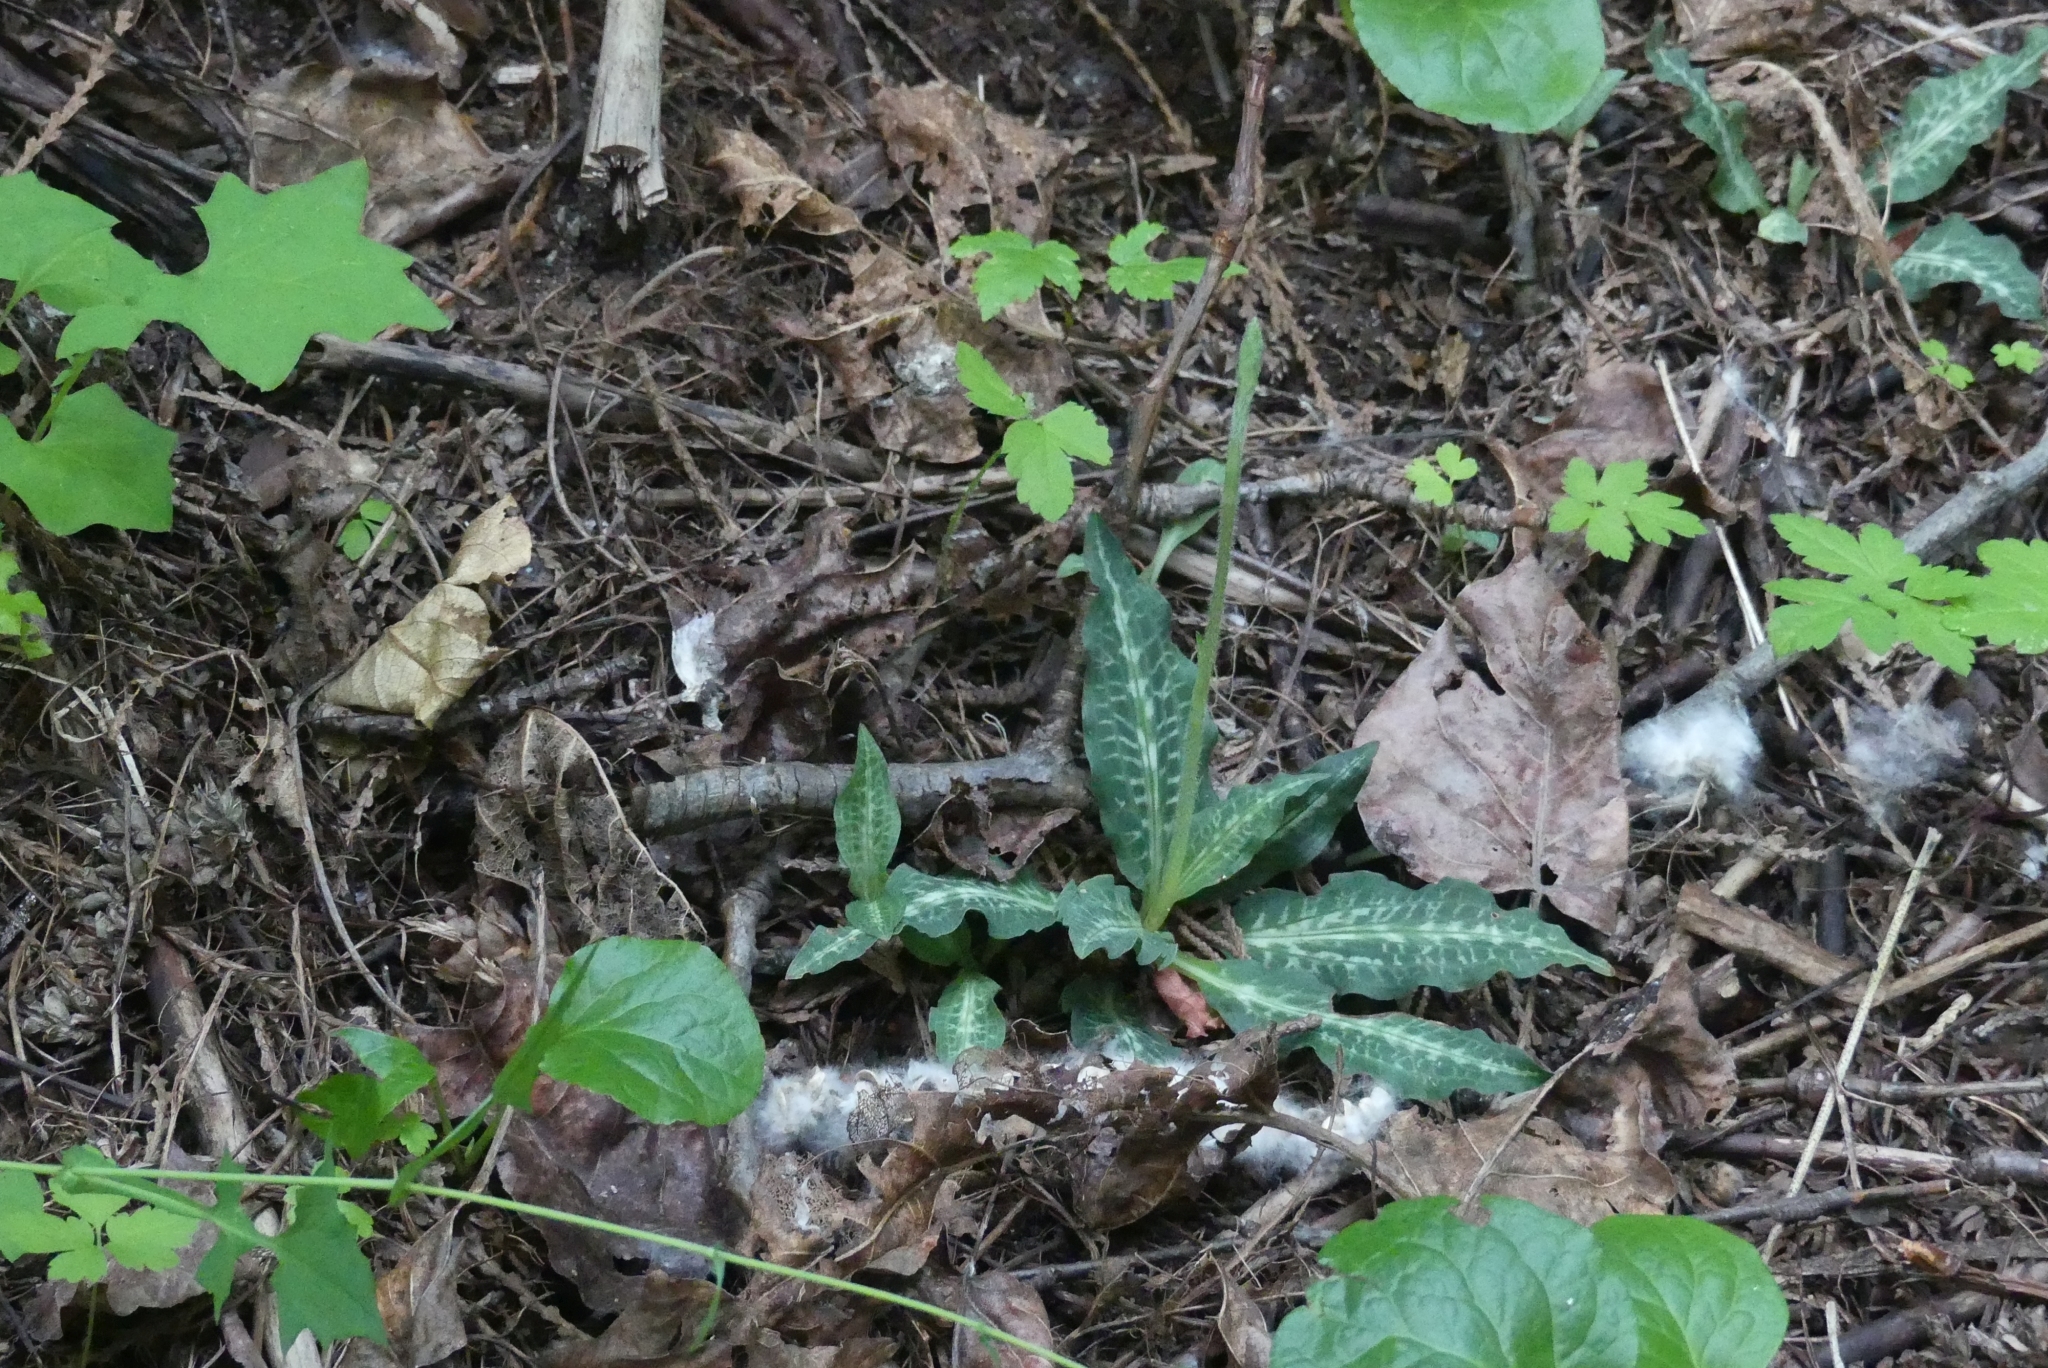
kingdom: Plantae
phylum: Tracheophyta
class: Liliopsida
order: Asparagales
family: Orchidaceae
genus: Goodyera
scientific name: Goodyera oblongifolia
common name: Giant rattlesnake-plantain
